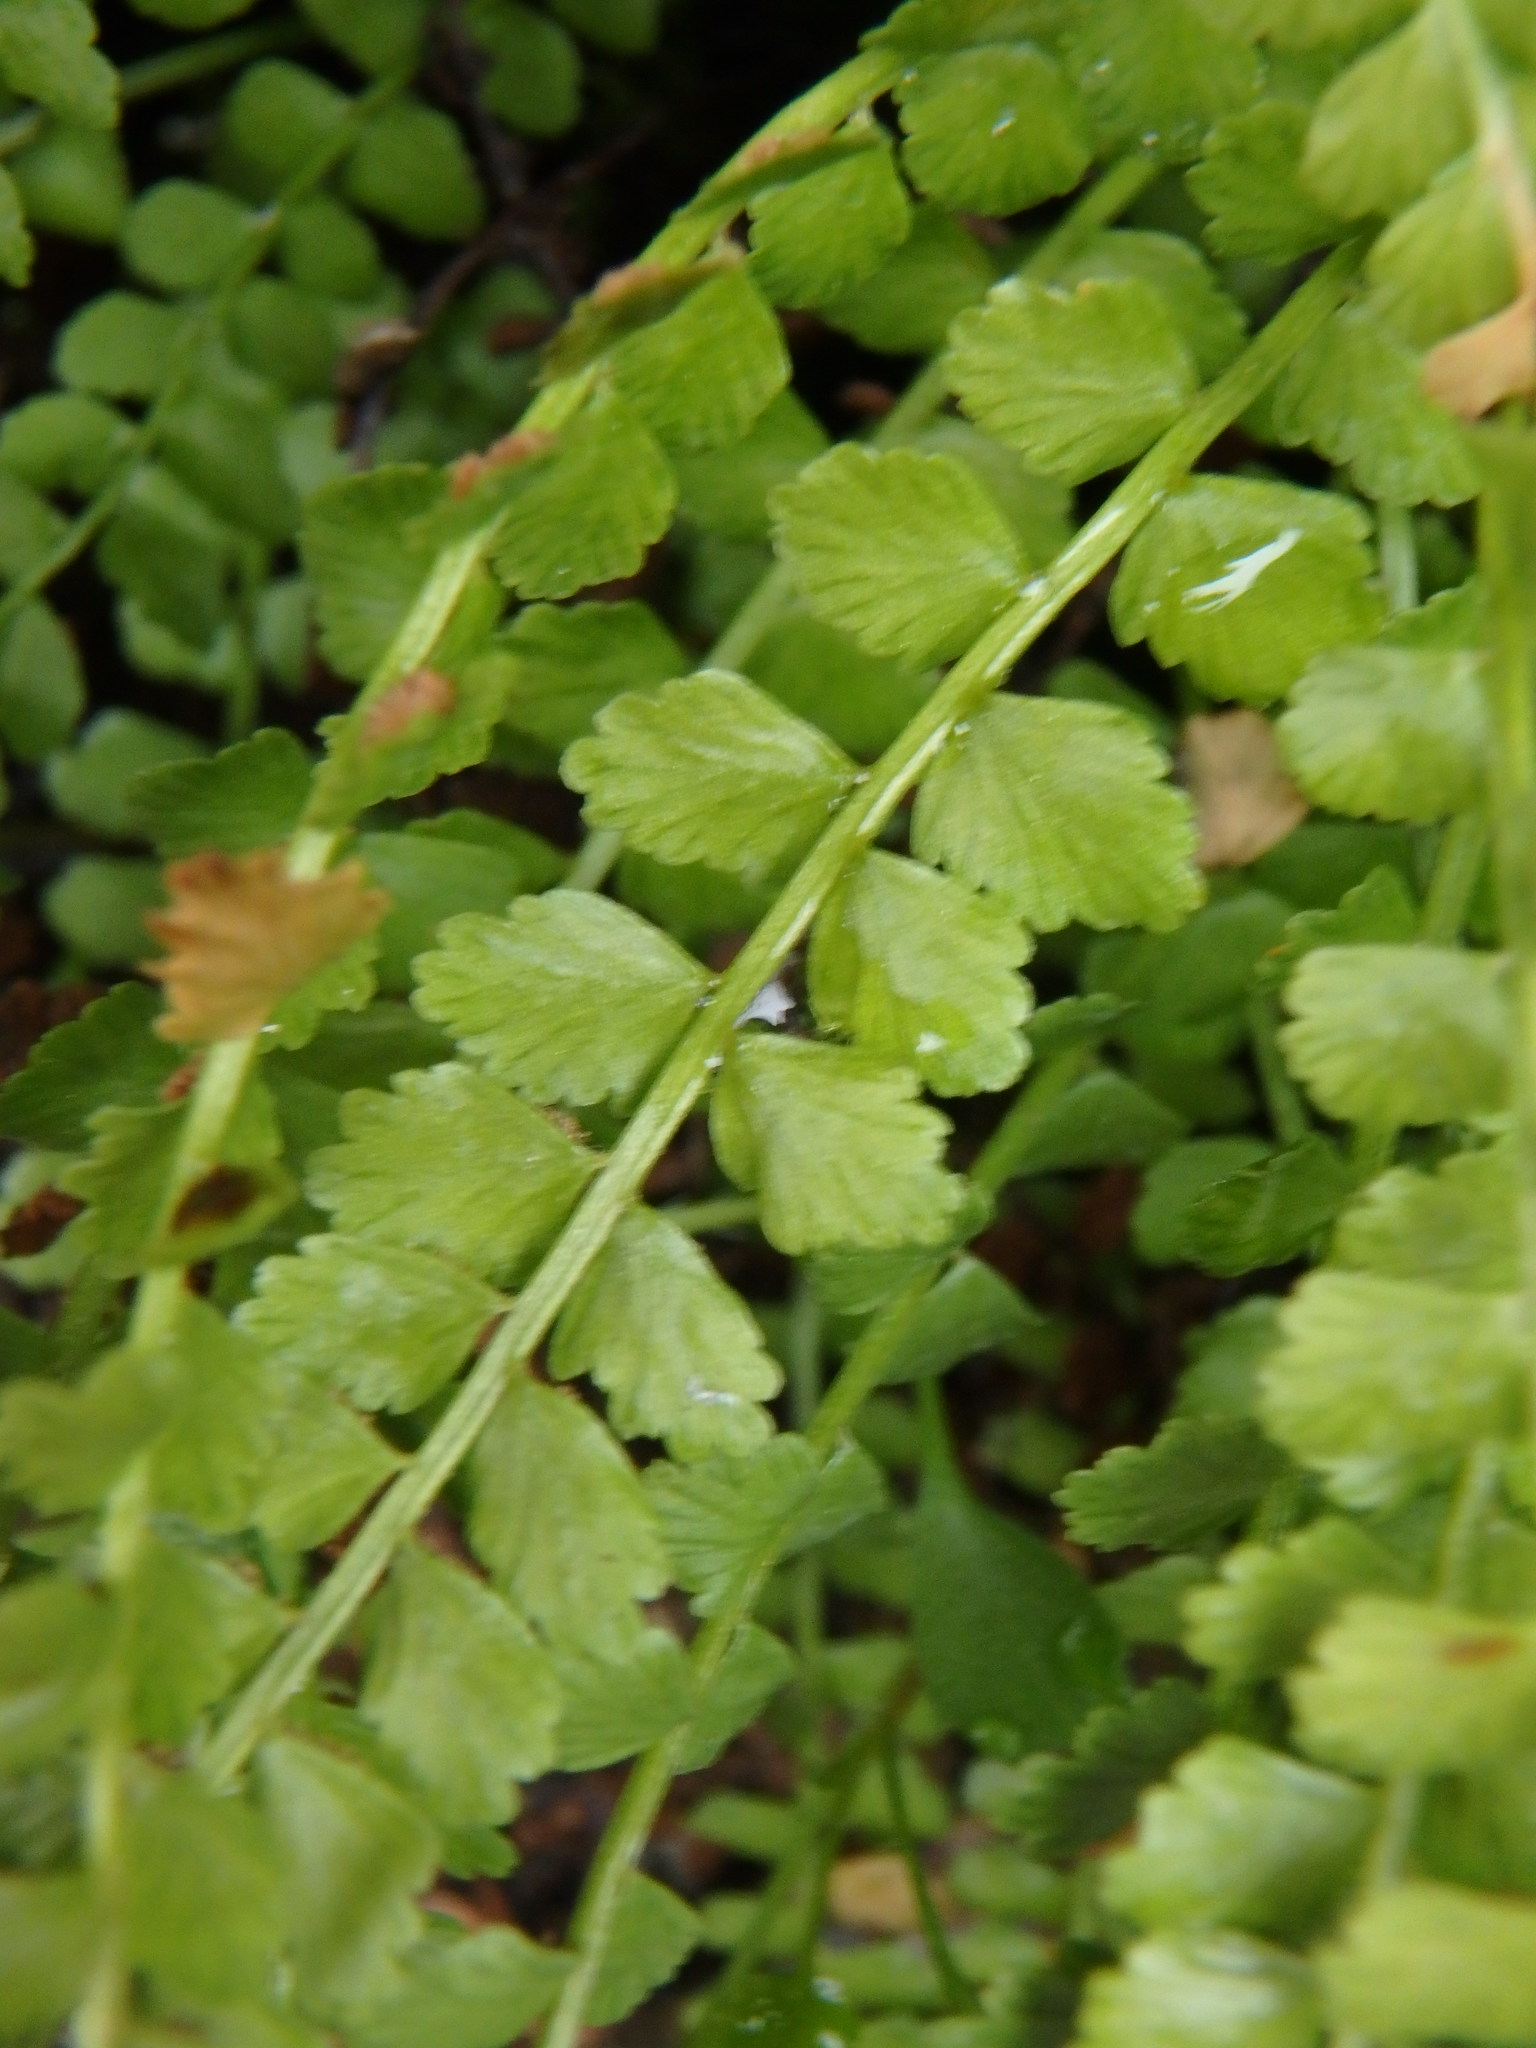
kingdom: Plantae
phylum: Tracheophyta
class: Polypodiopsida
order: Polypodiales
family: Aspleniaceae
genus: Asplenium
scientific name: Asplenium viride
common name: Green spleenwort
